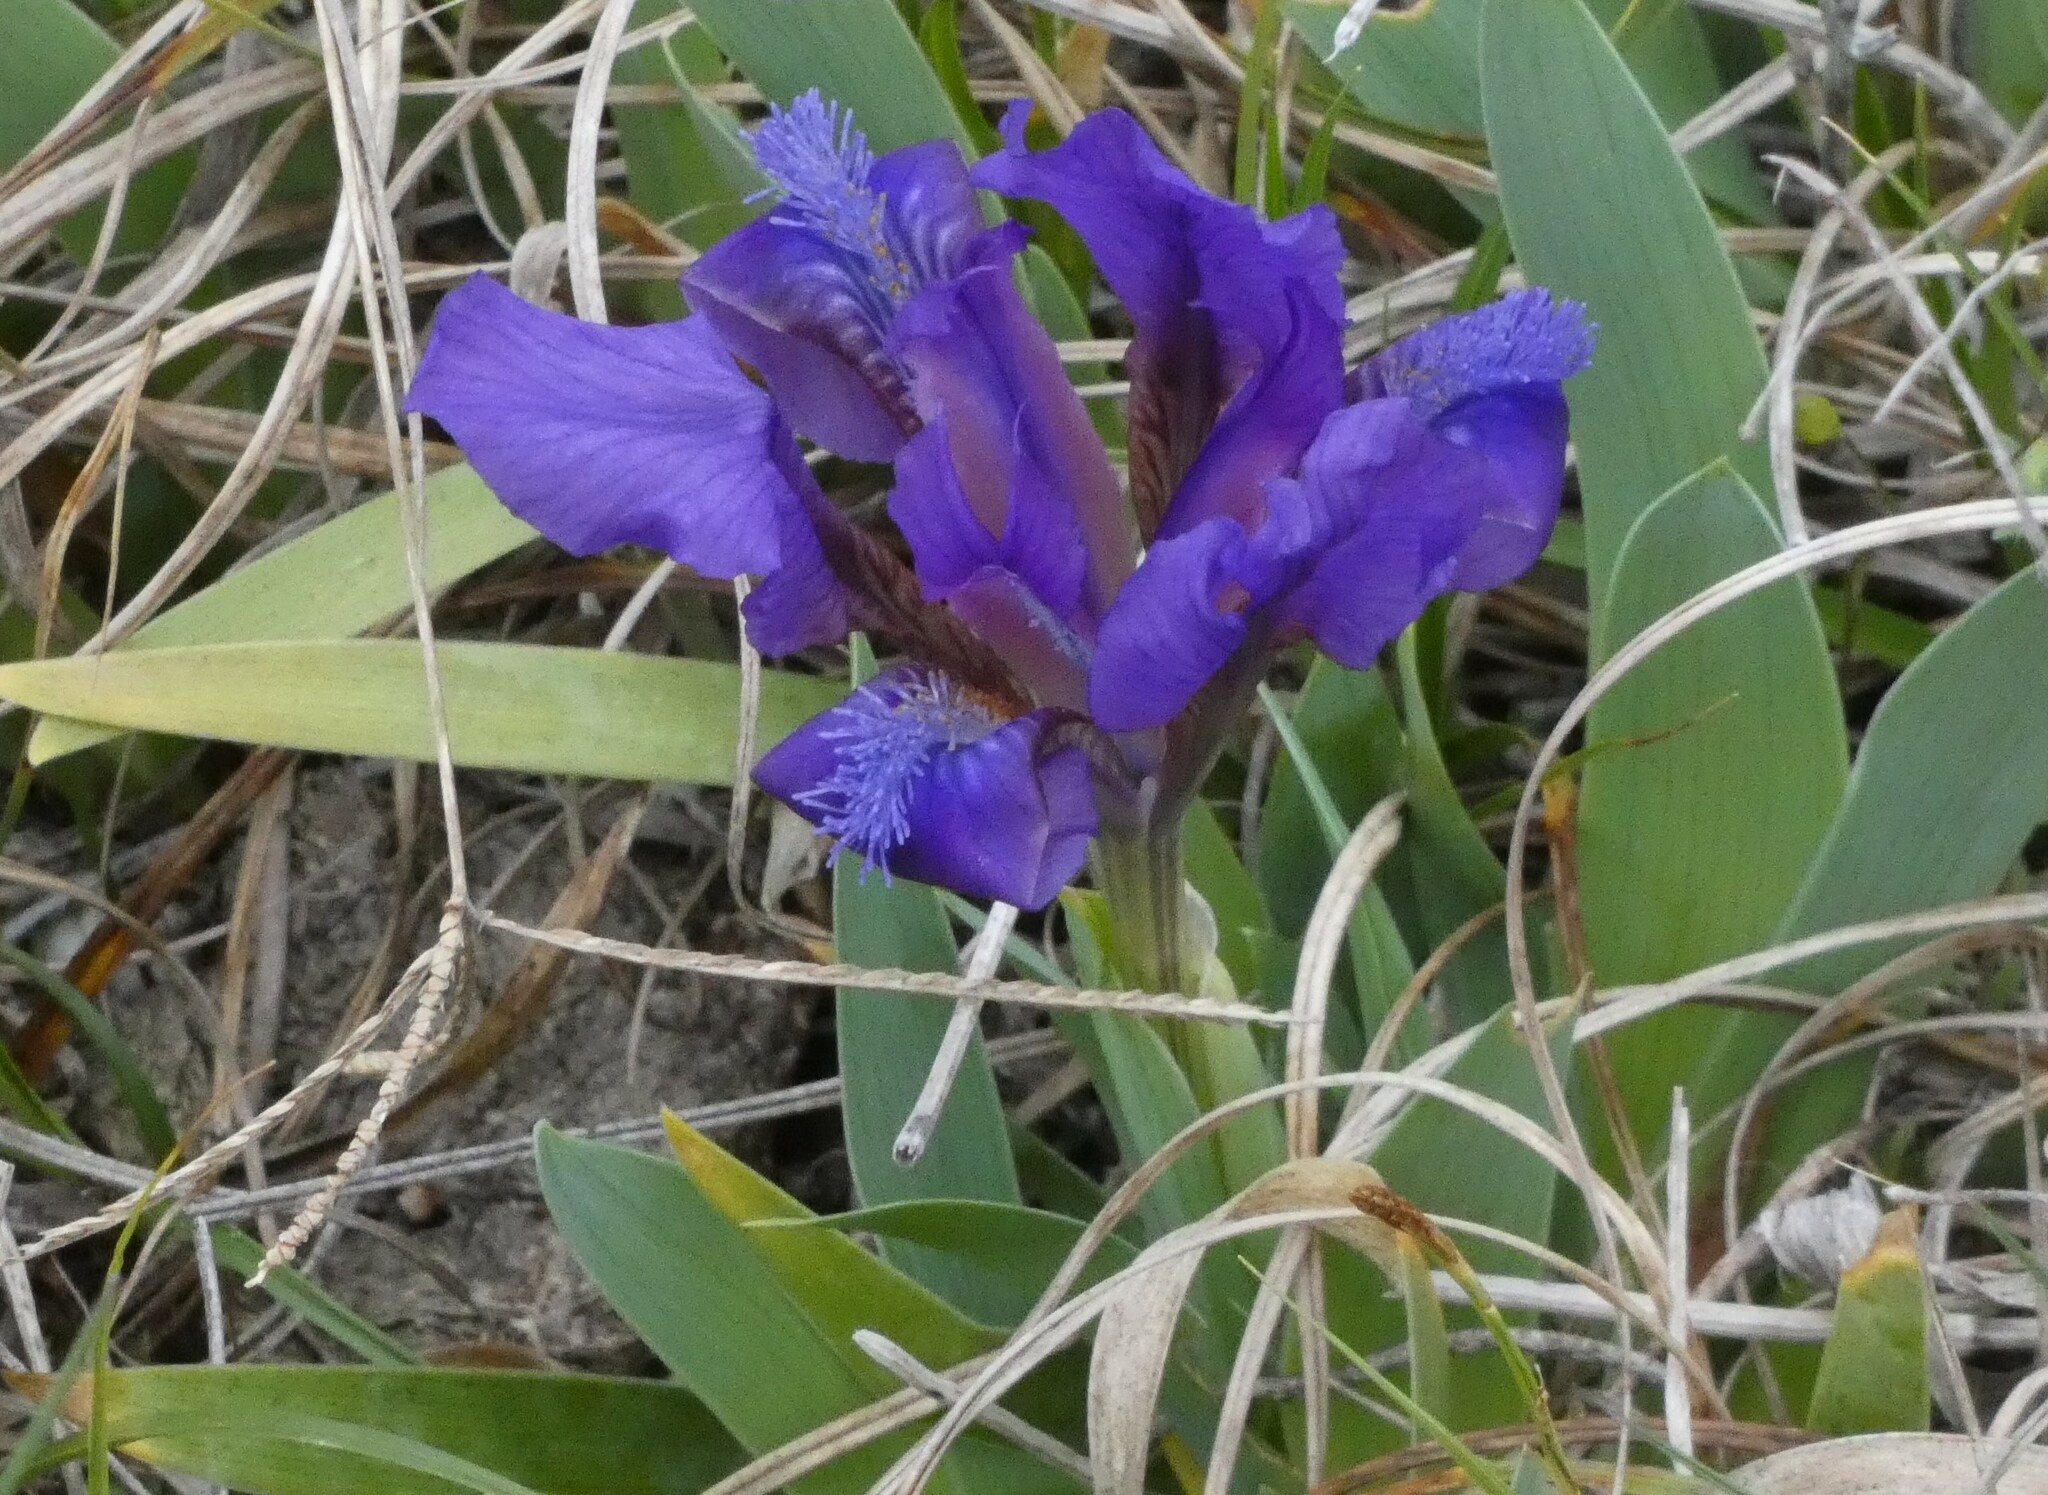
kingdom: Plantae
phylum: Tracheophyta
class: Liliopsida
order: Asparagales
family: Iridaceae
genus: Iris
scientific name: Iris pumila
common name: Dwarf iris
